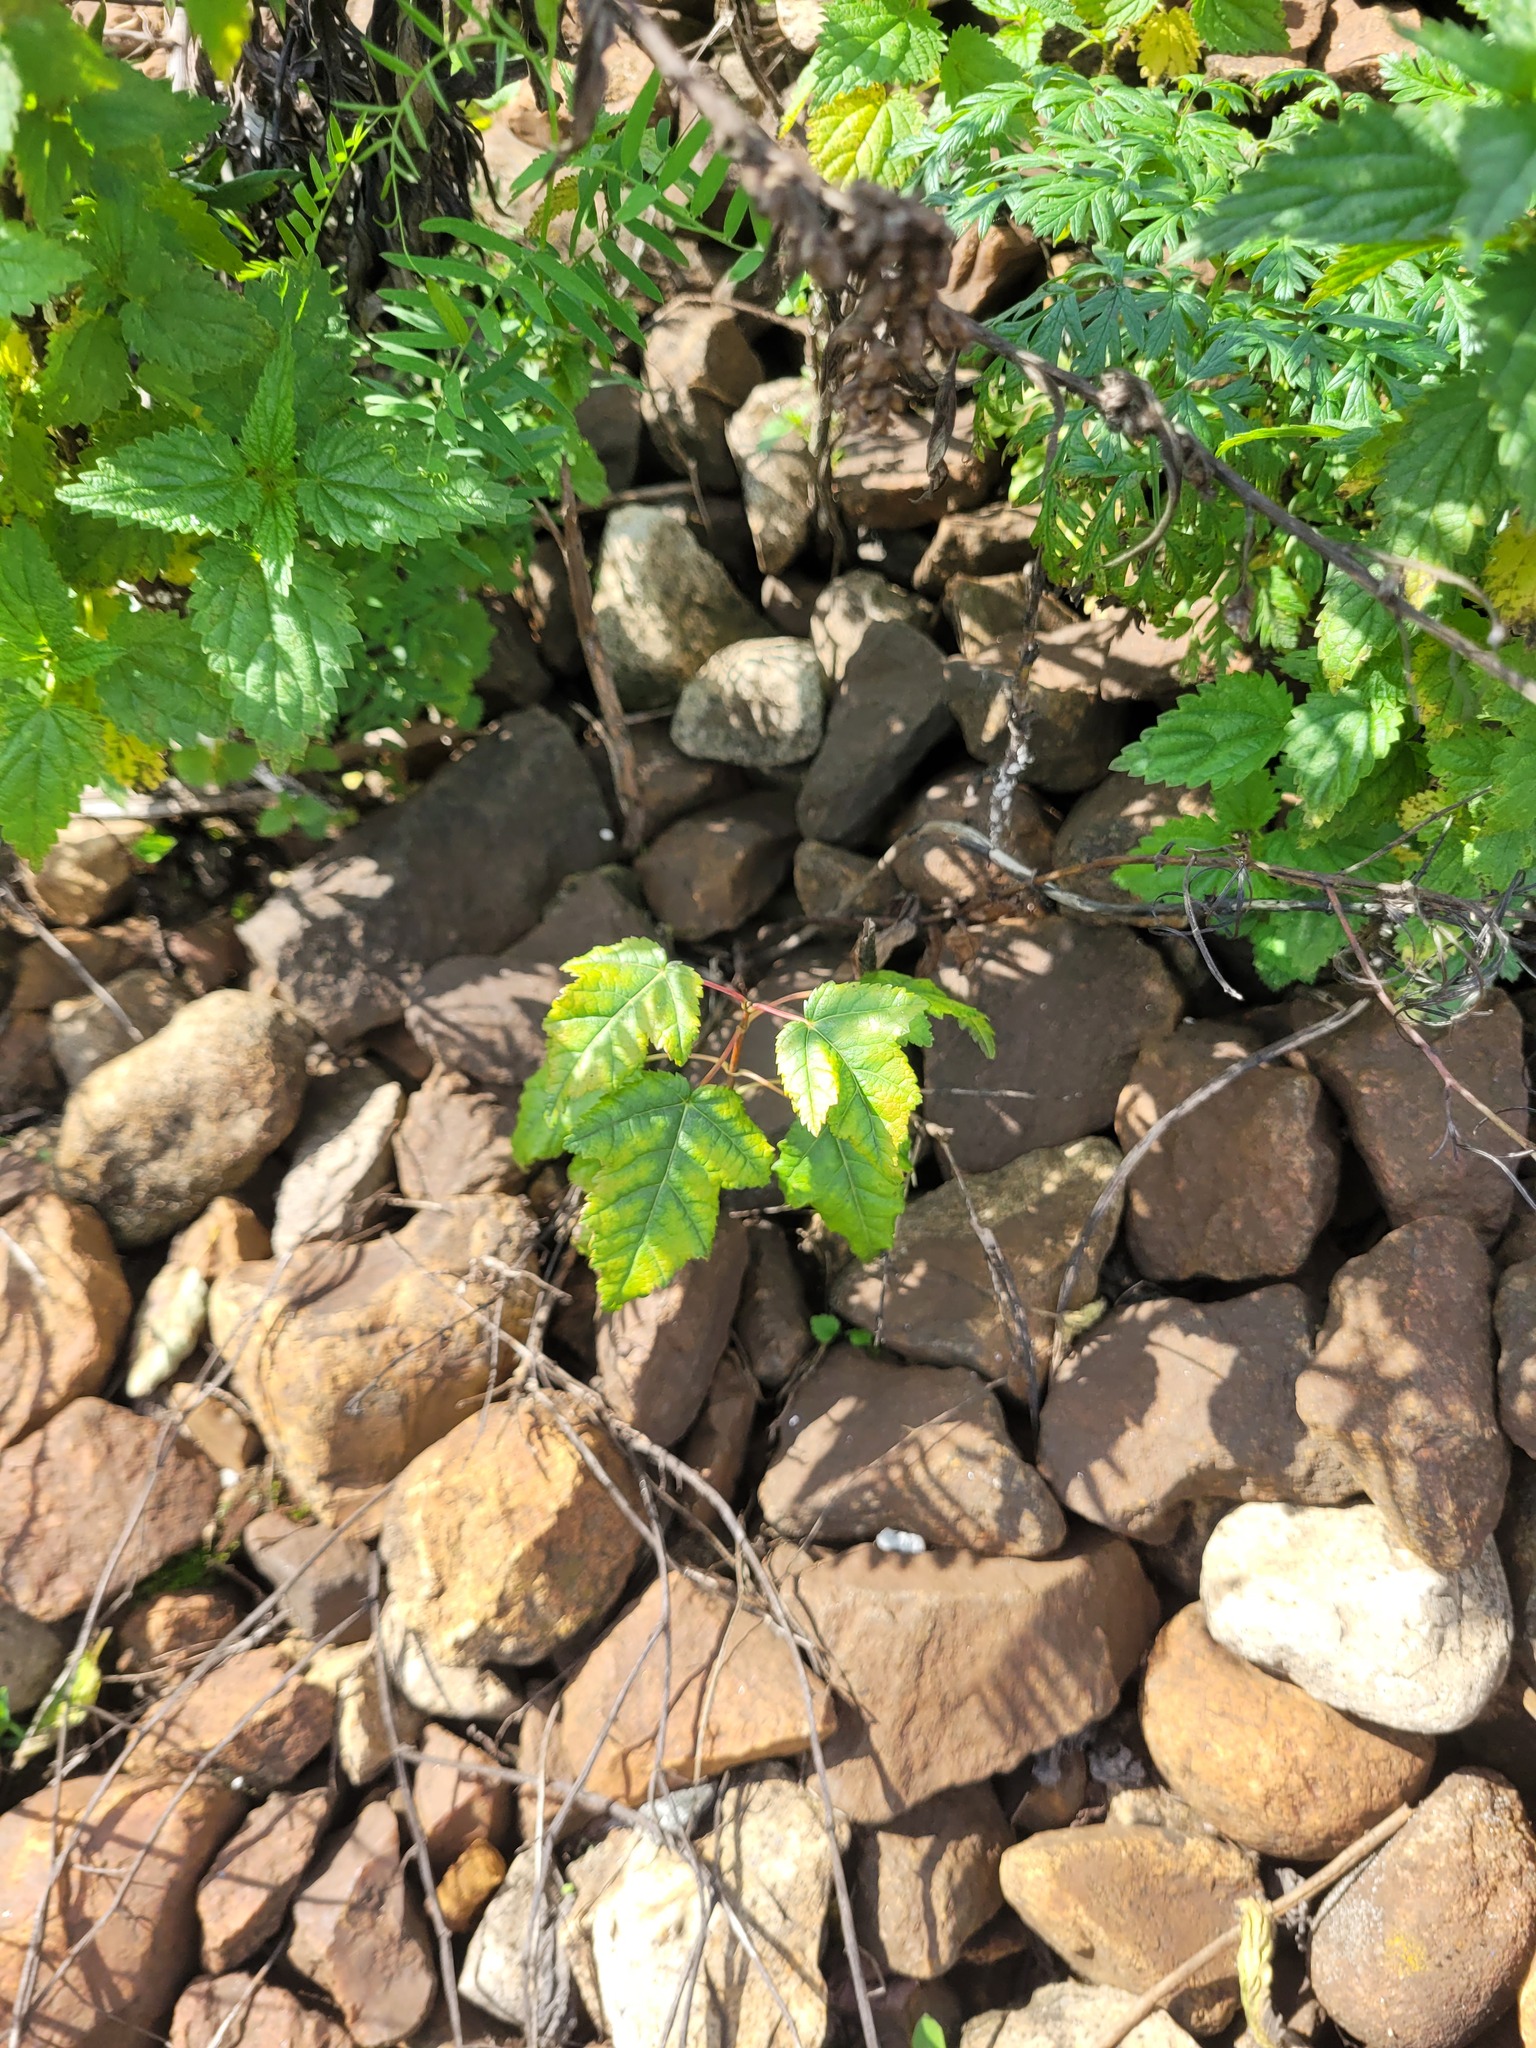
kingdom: Plantae
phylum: Tracheophyta
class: Magnoliopsida
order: Sapindales
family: Sapindaceae
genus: Acer
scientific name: Acer tataricum
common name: Tartar maple
